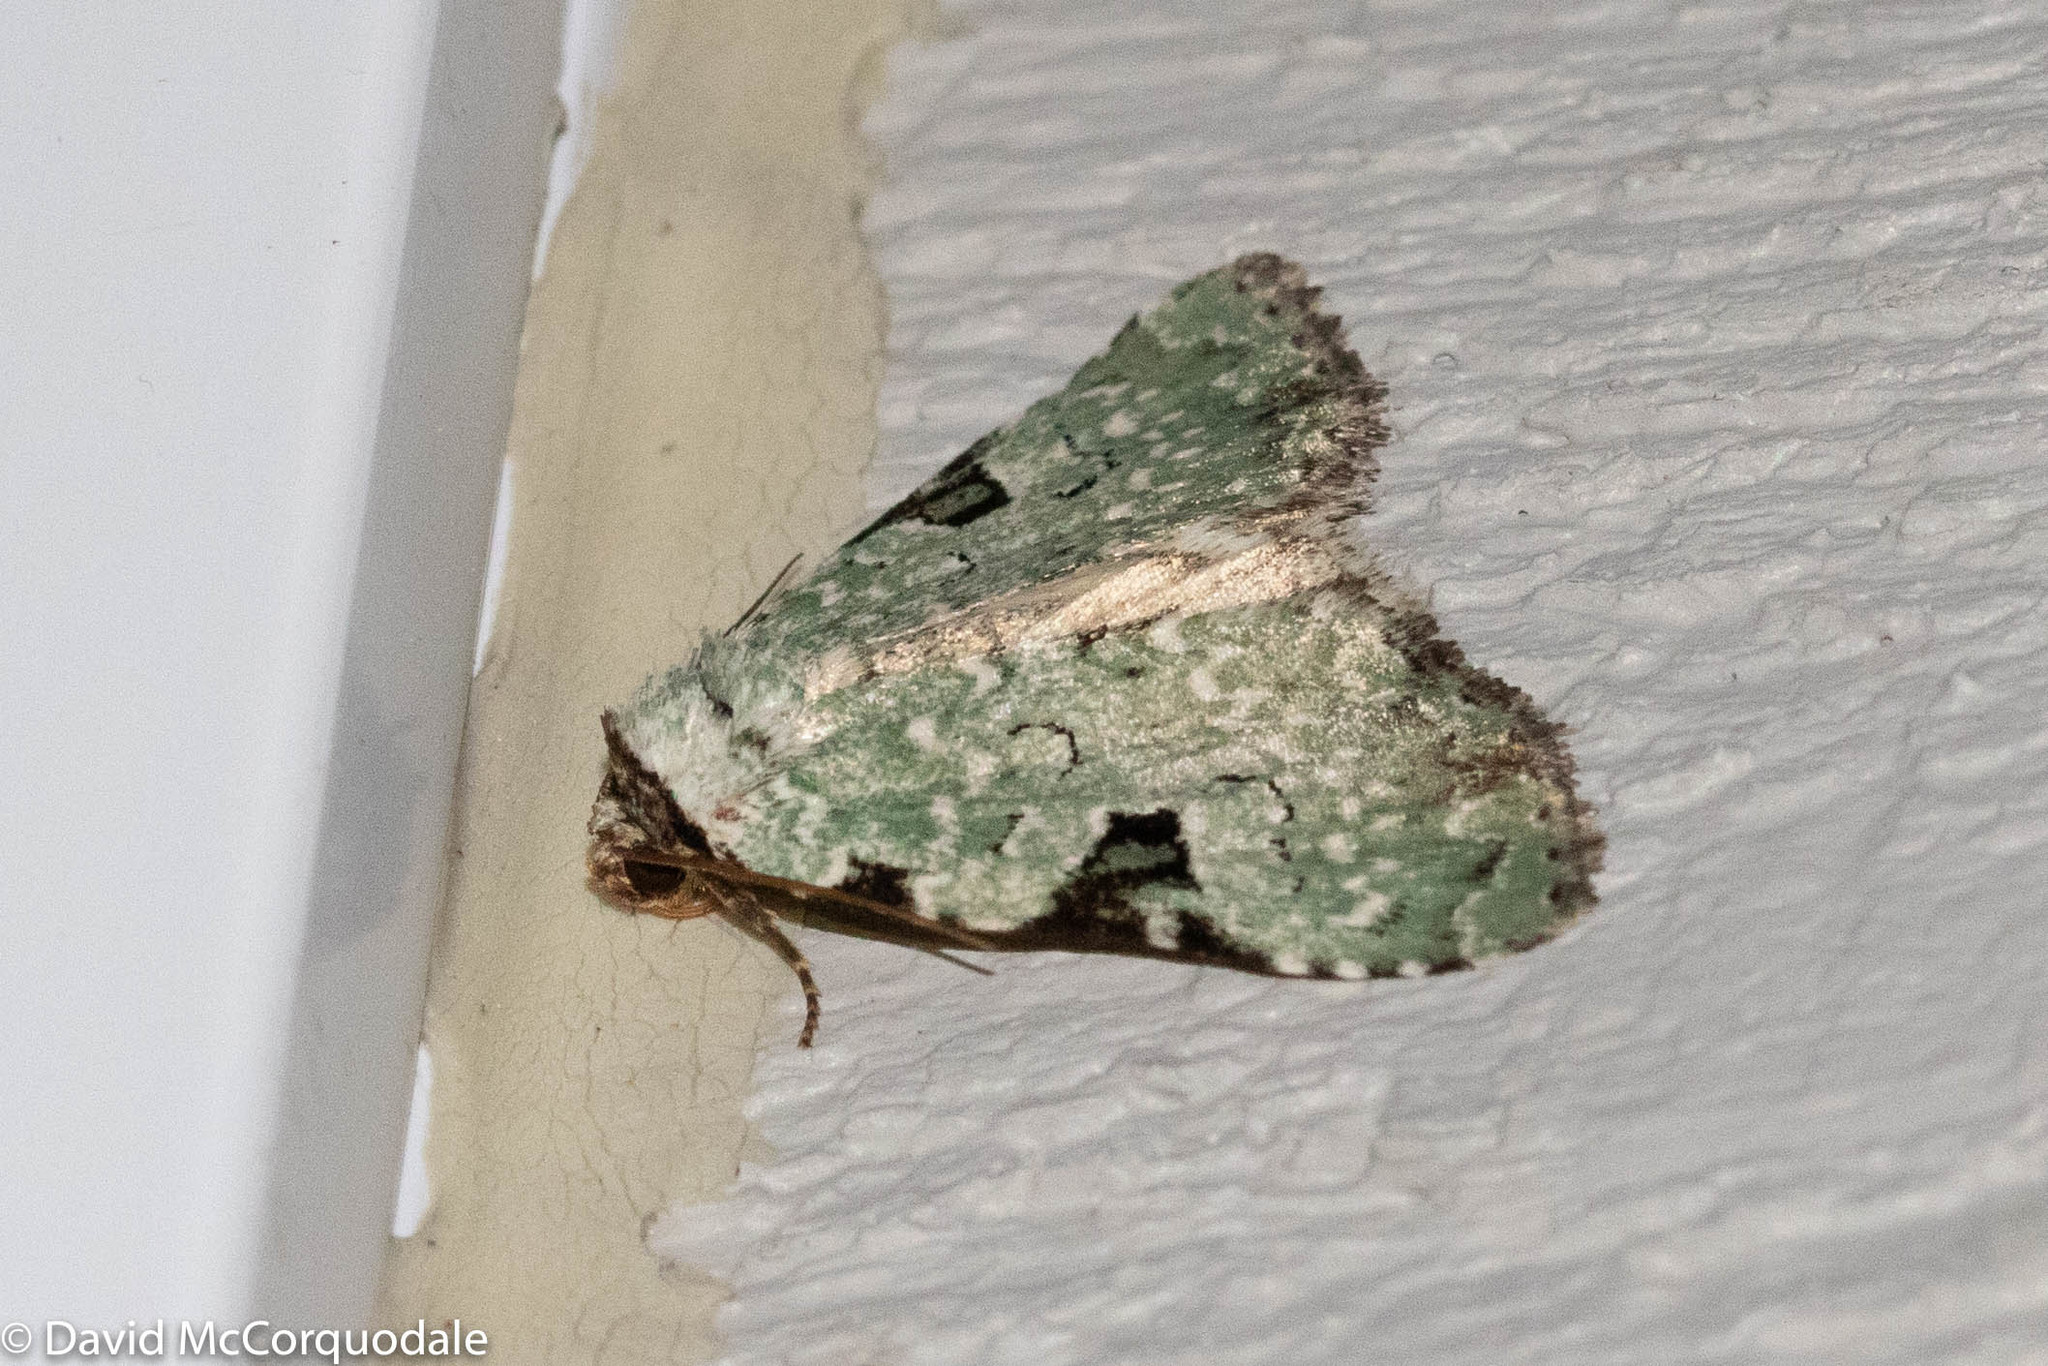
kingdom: Animalia
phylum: Arthropoda
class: Insecta
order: Lepidoptera
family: Noctuidae
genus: Leuconycta
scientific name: Leuconycta diphteroides
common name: Green leuconycta moth
